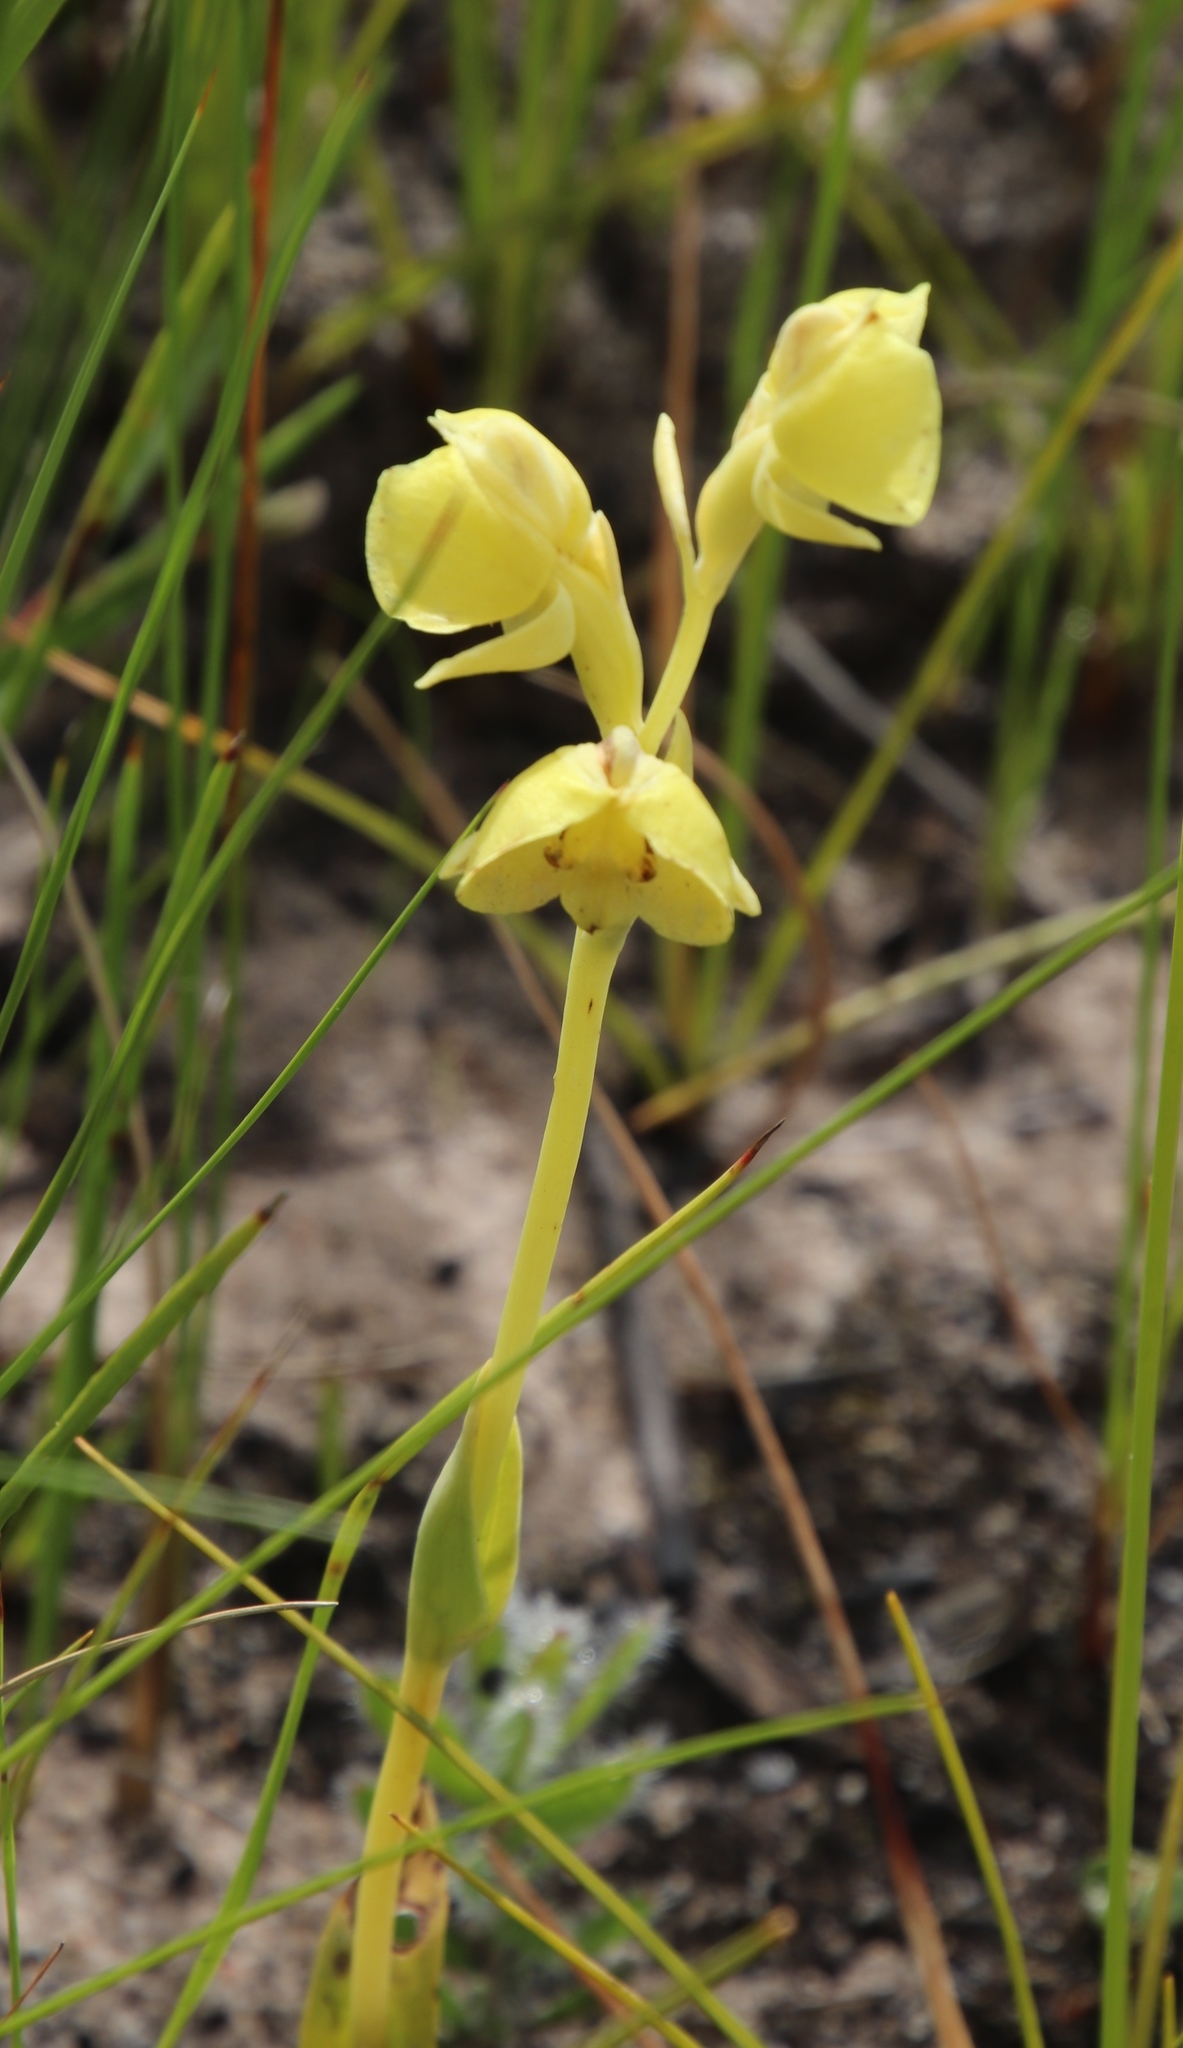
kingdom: Plantae
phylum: Tracheophyta
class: Liliopsida
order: Asparagales
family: Orchidaceae
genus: Pterygodium
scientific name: Pterygodium catholicum
